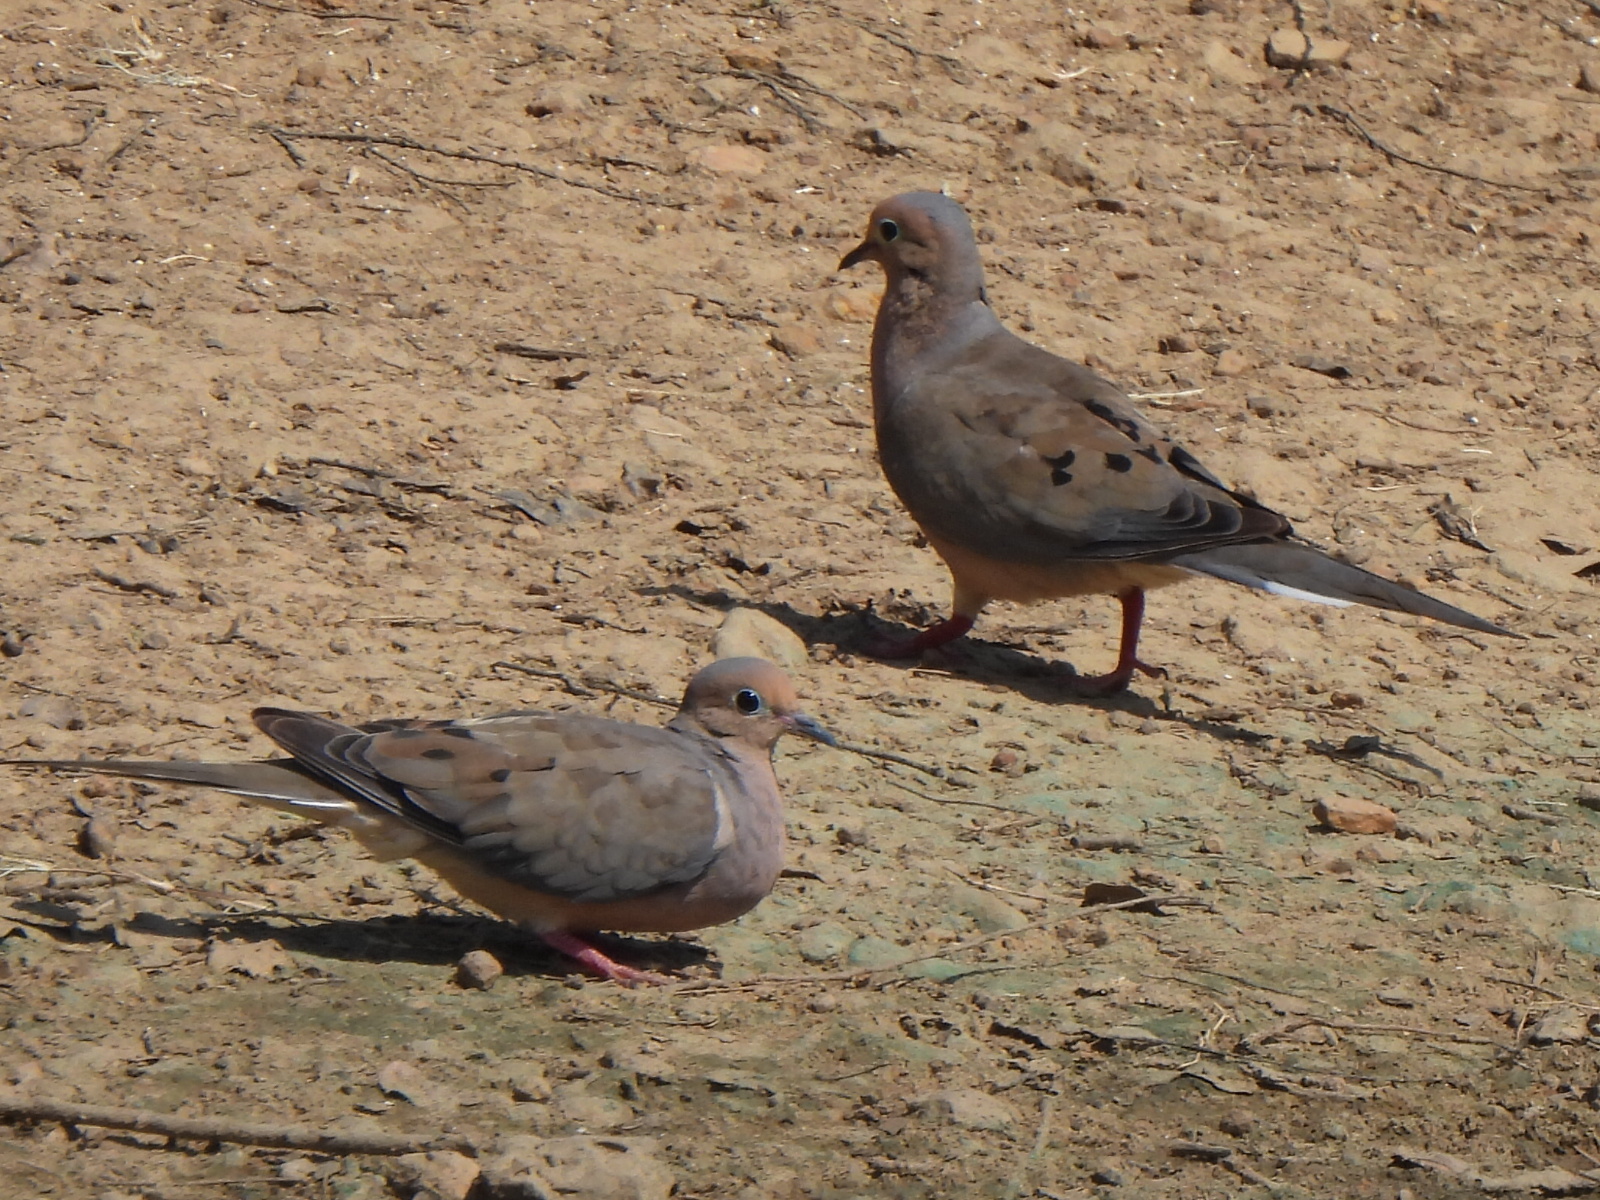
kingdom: Animalia
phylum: Chordata
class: Aves
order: Columbiformes
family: Columbidae
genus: Zenaida
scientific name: Zenaida macroura
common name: Mourning dove
